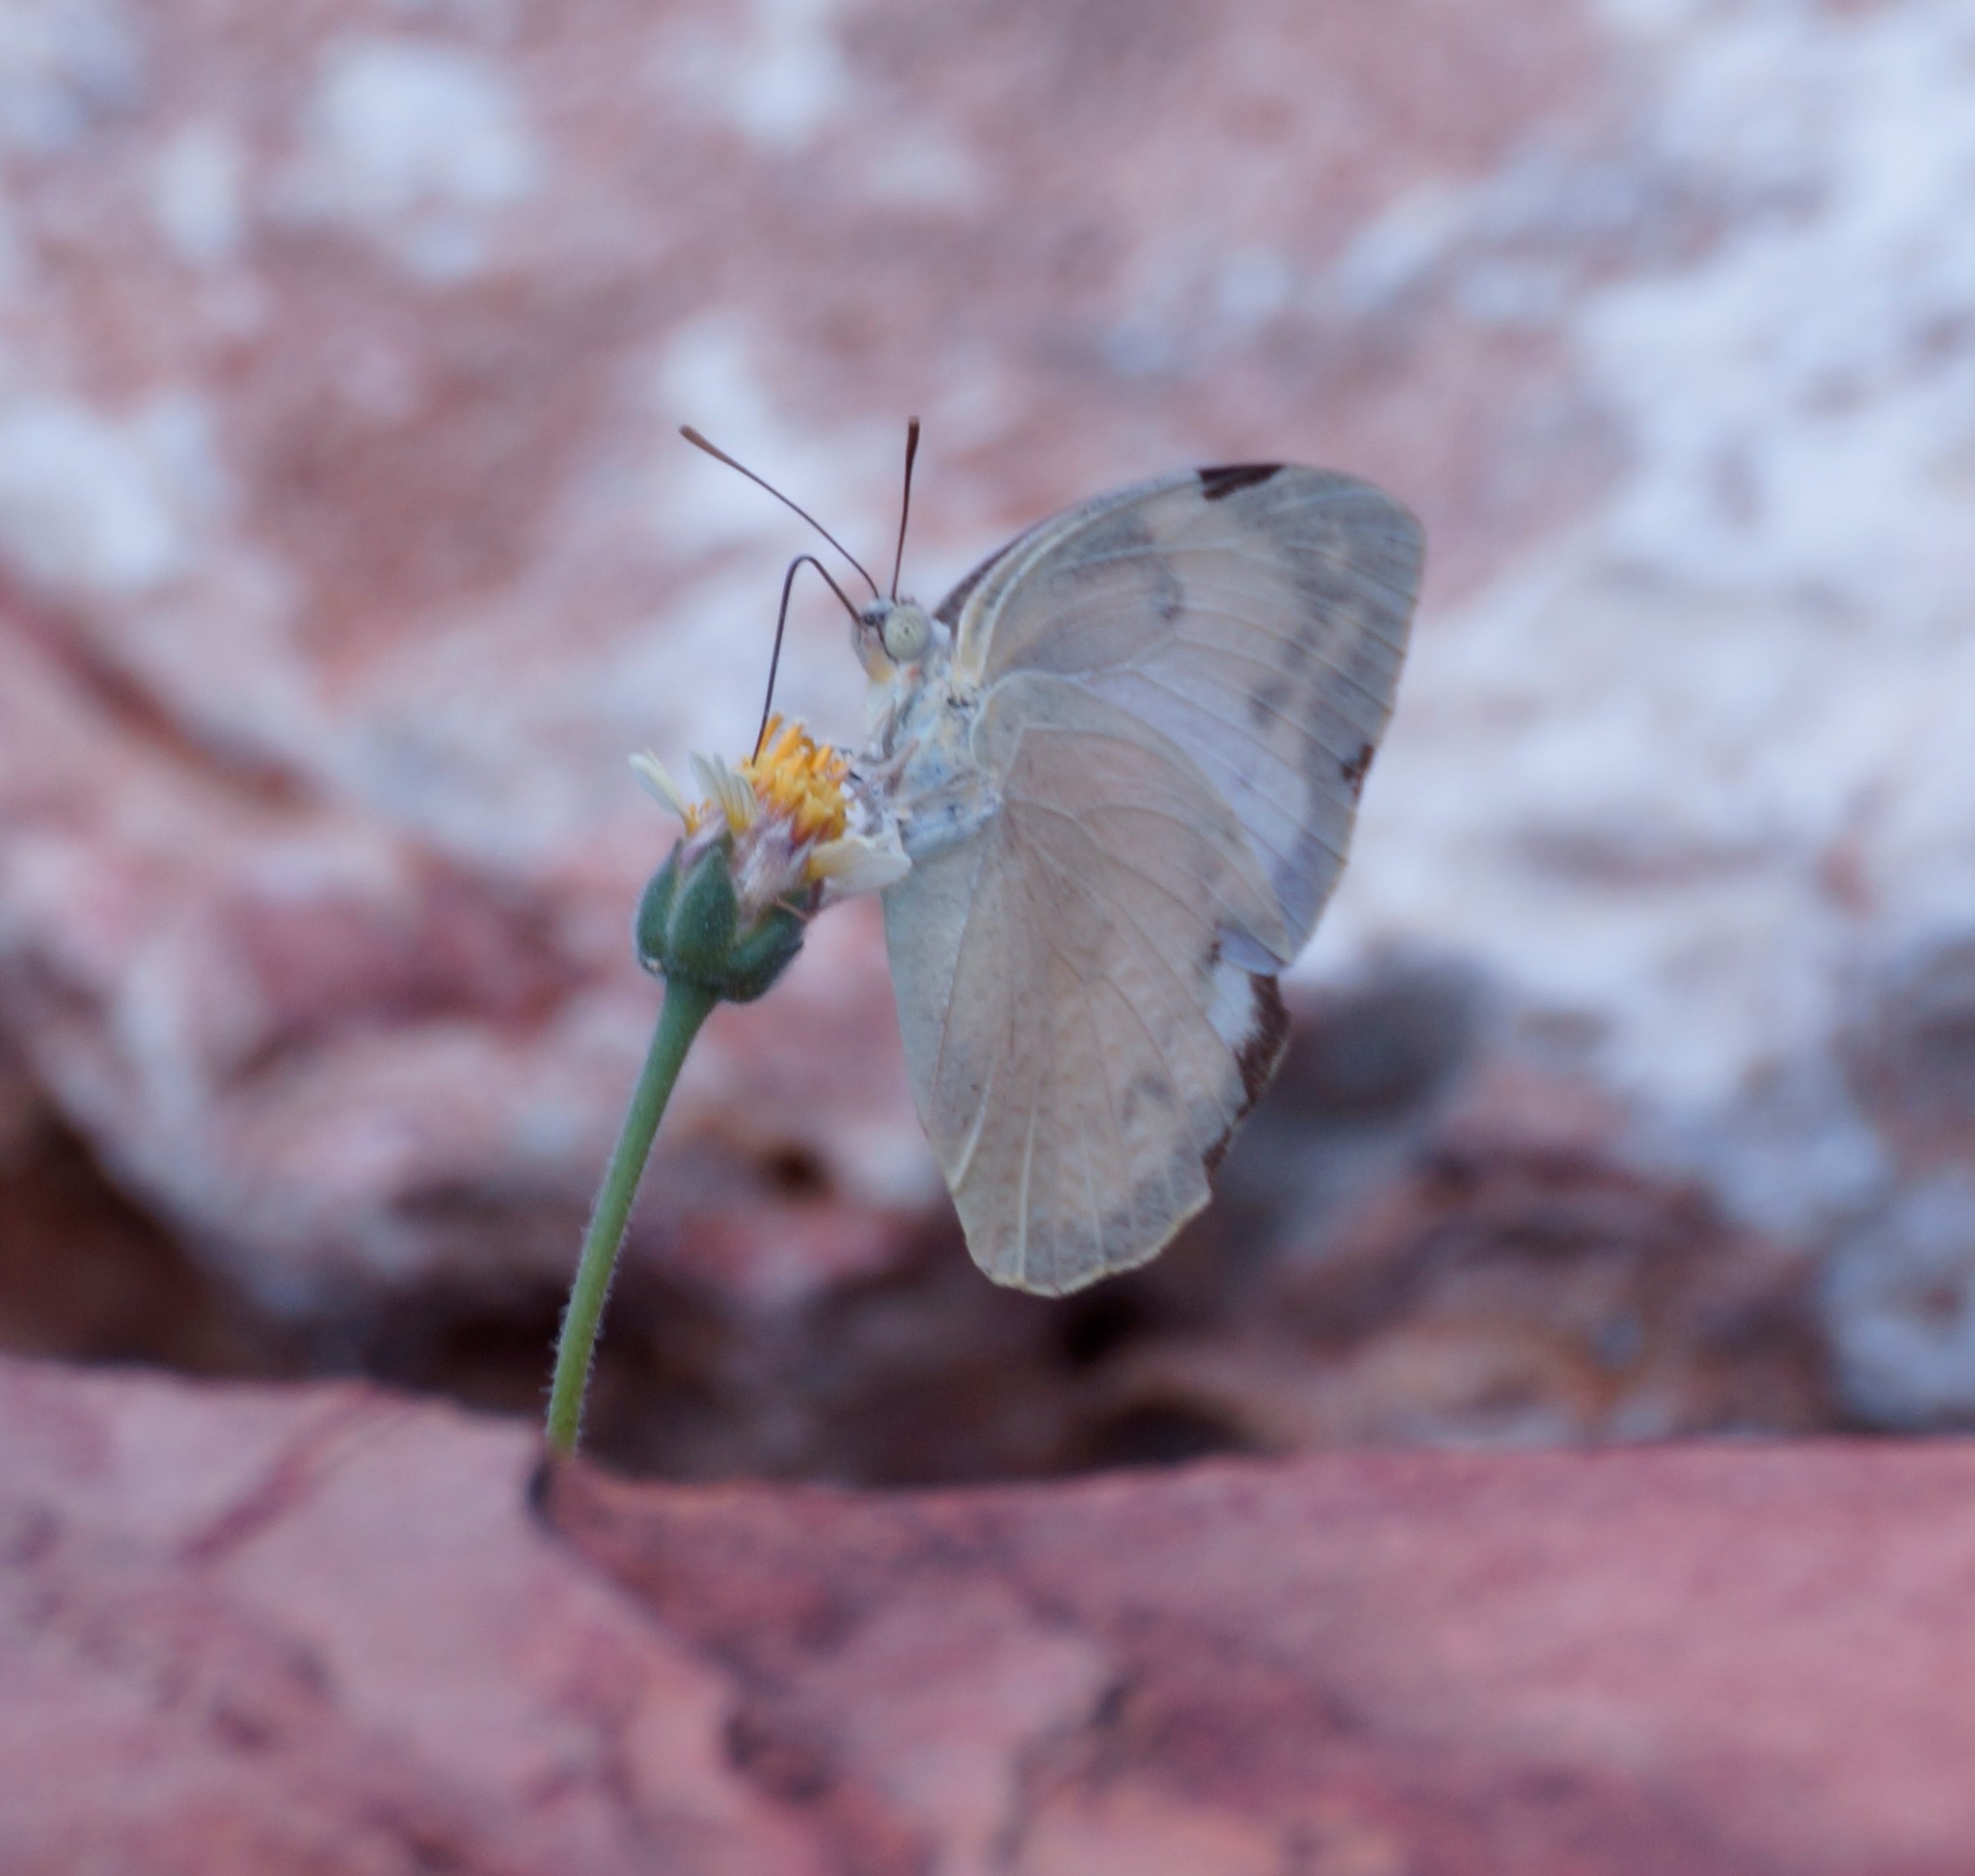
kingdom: Animalia
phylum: Arthropoda
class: Insecta
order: Lepidoptera
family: Pieridae
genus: Catopsilia
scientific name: Catopsilia pomona
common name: Common emigrant
